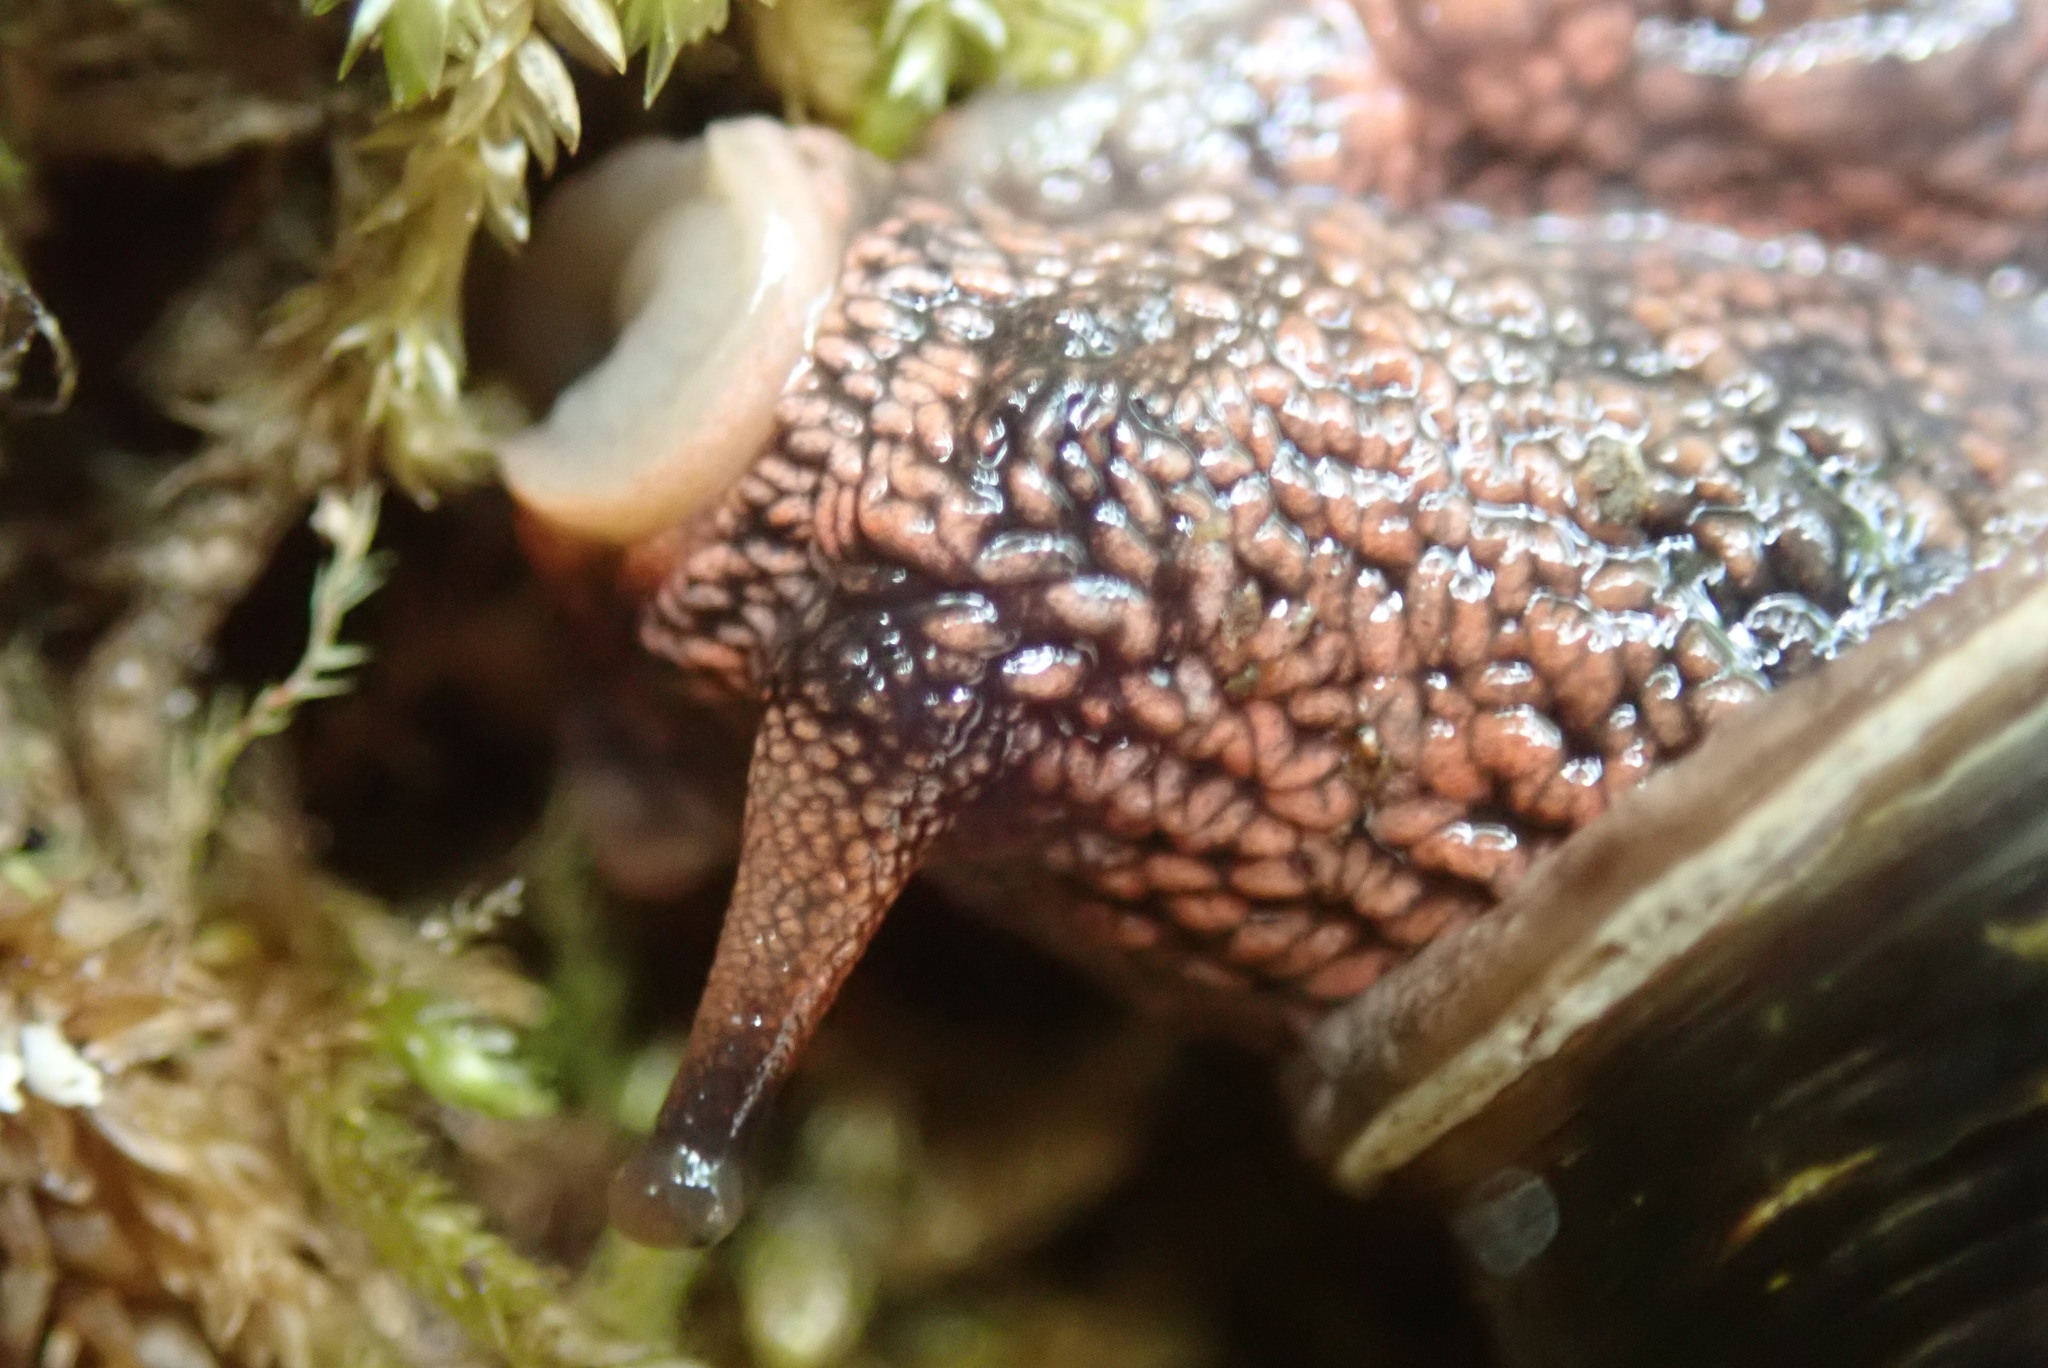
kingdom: Animalia
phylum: Mollusca
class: Gastropoda
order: Stylommatophora
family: Xanthonychidae
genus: Monadenia
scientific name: Monadenia fidelis
